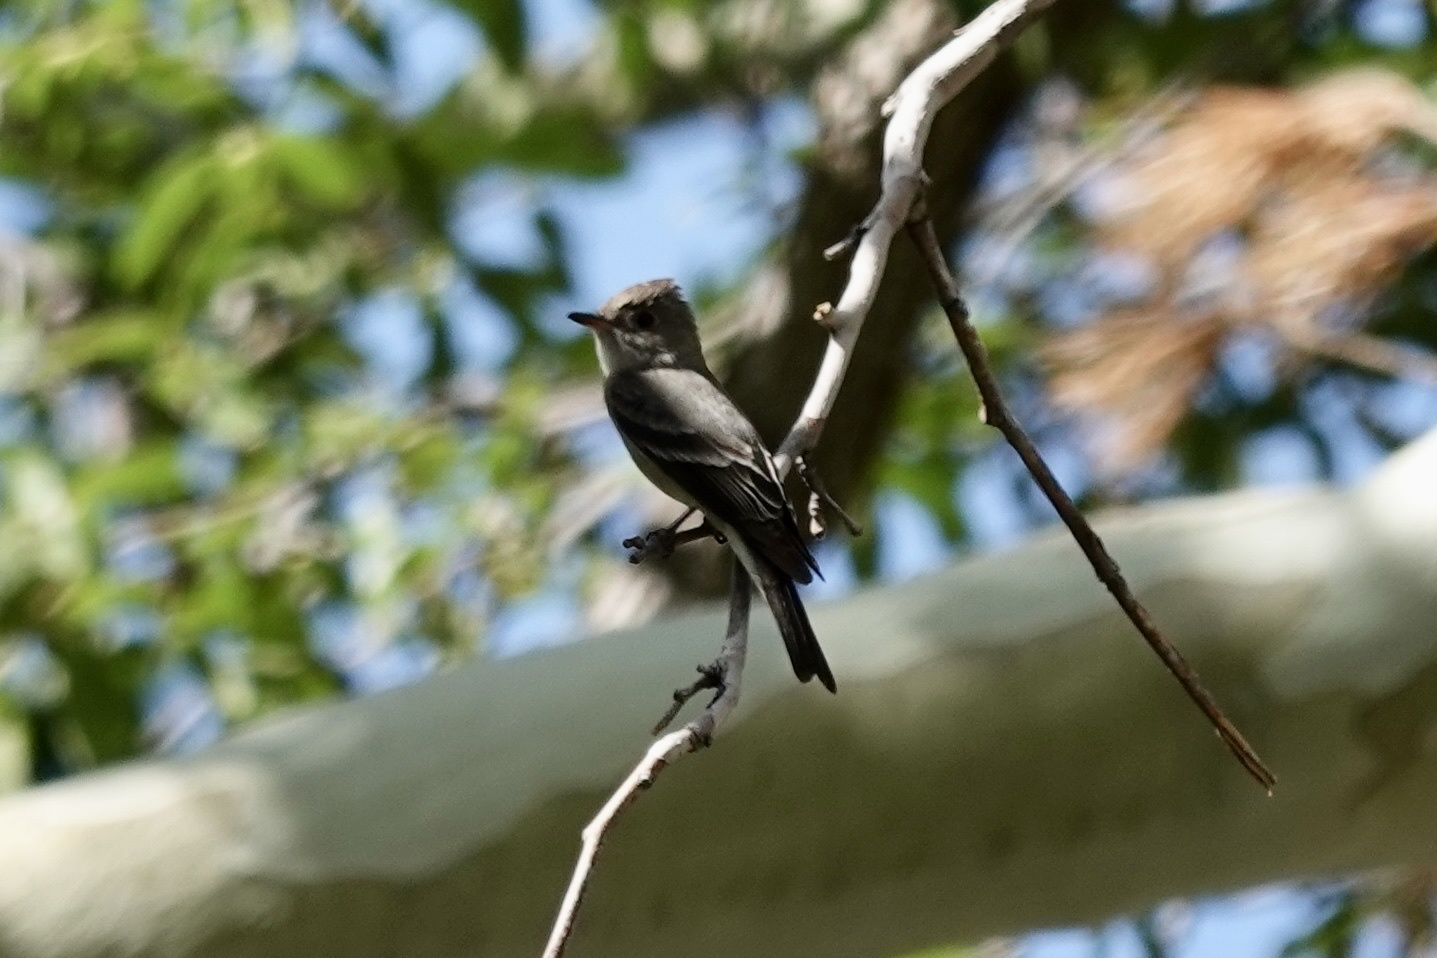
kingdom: Animalia
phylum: Chordata
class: Aves
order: Passeriformes
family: Tyrannidae
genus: Contopus
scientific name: Contopus sordidulus
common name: Western wood-pewee
